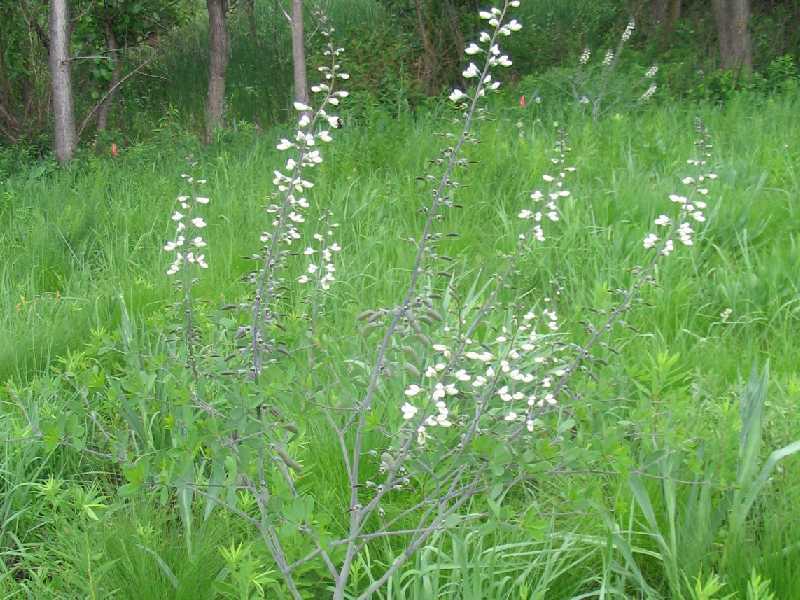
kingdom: Plantae
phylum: Tracheophyta
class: Magnoliopsida
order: Fabales
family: Fabaceae
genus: Baptisia
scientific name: Baptisia alba
